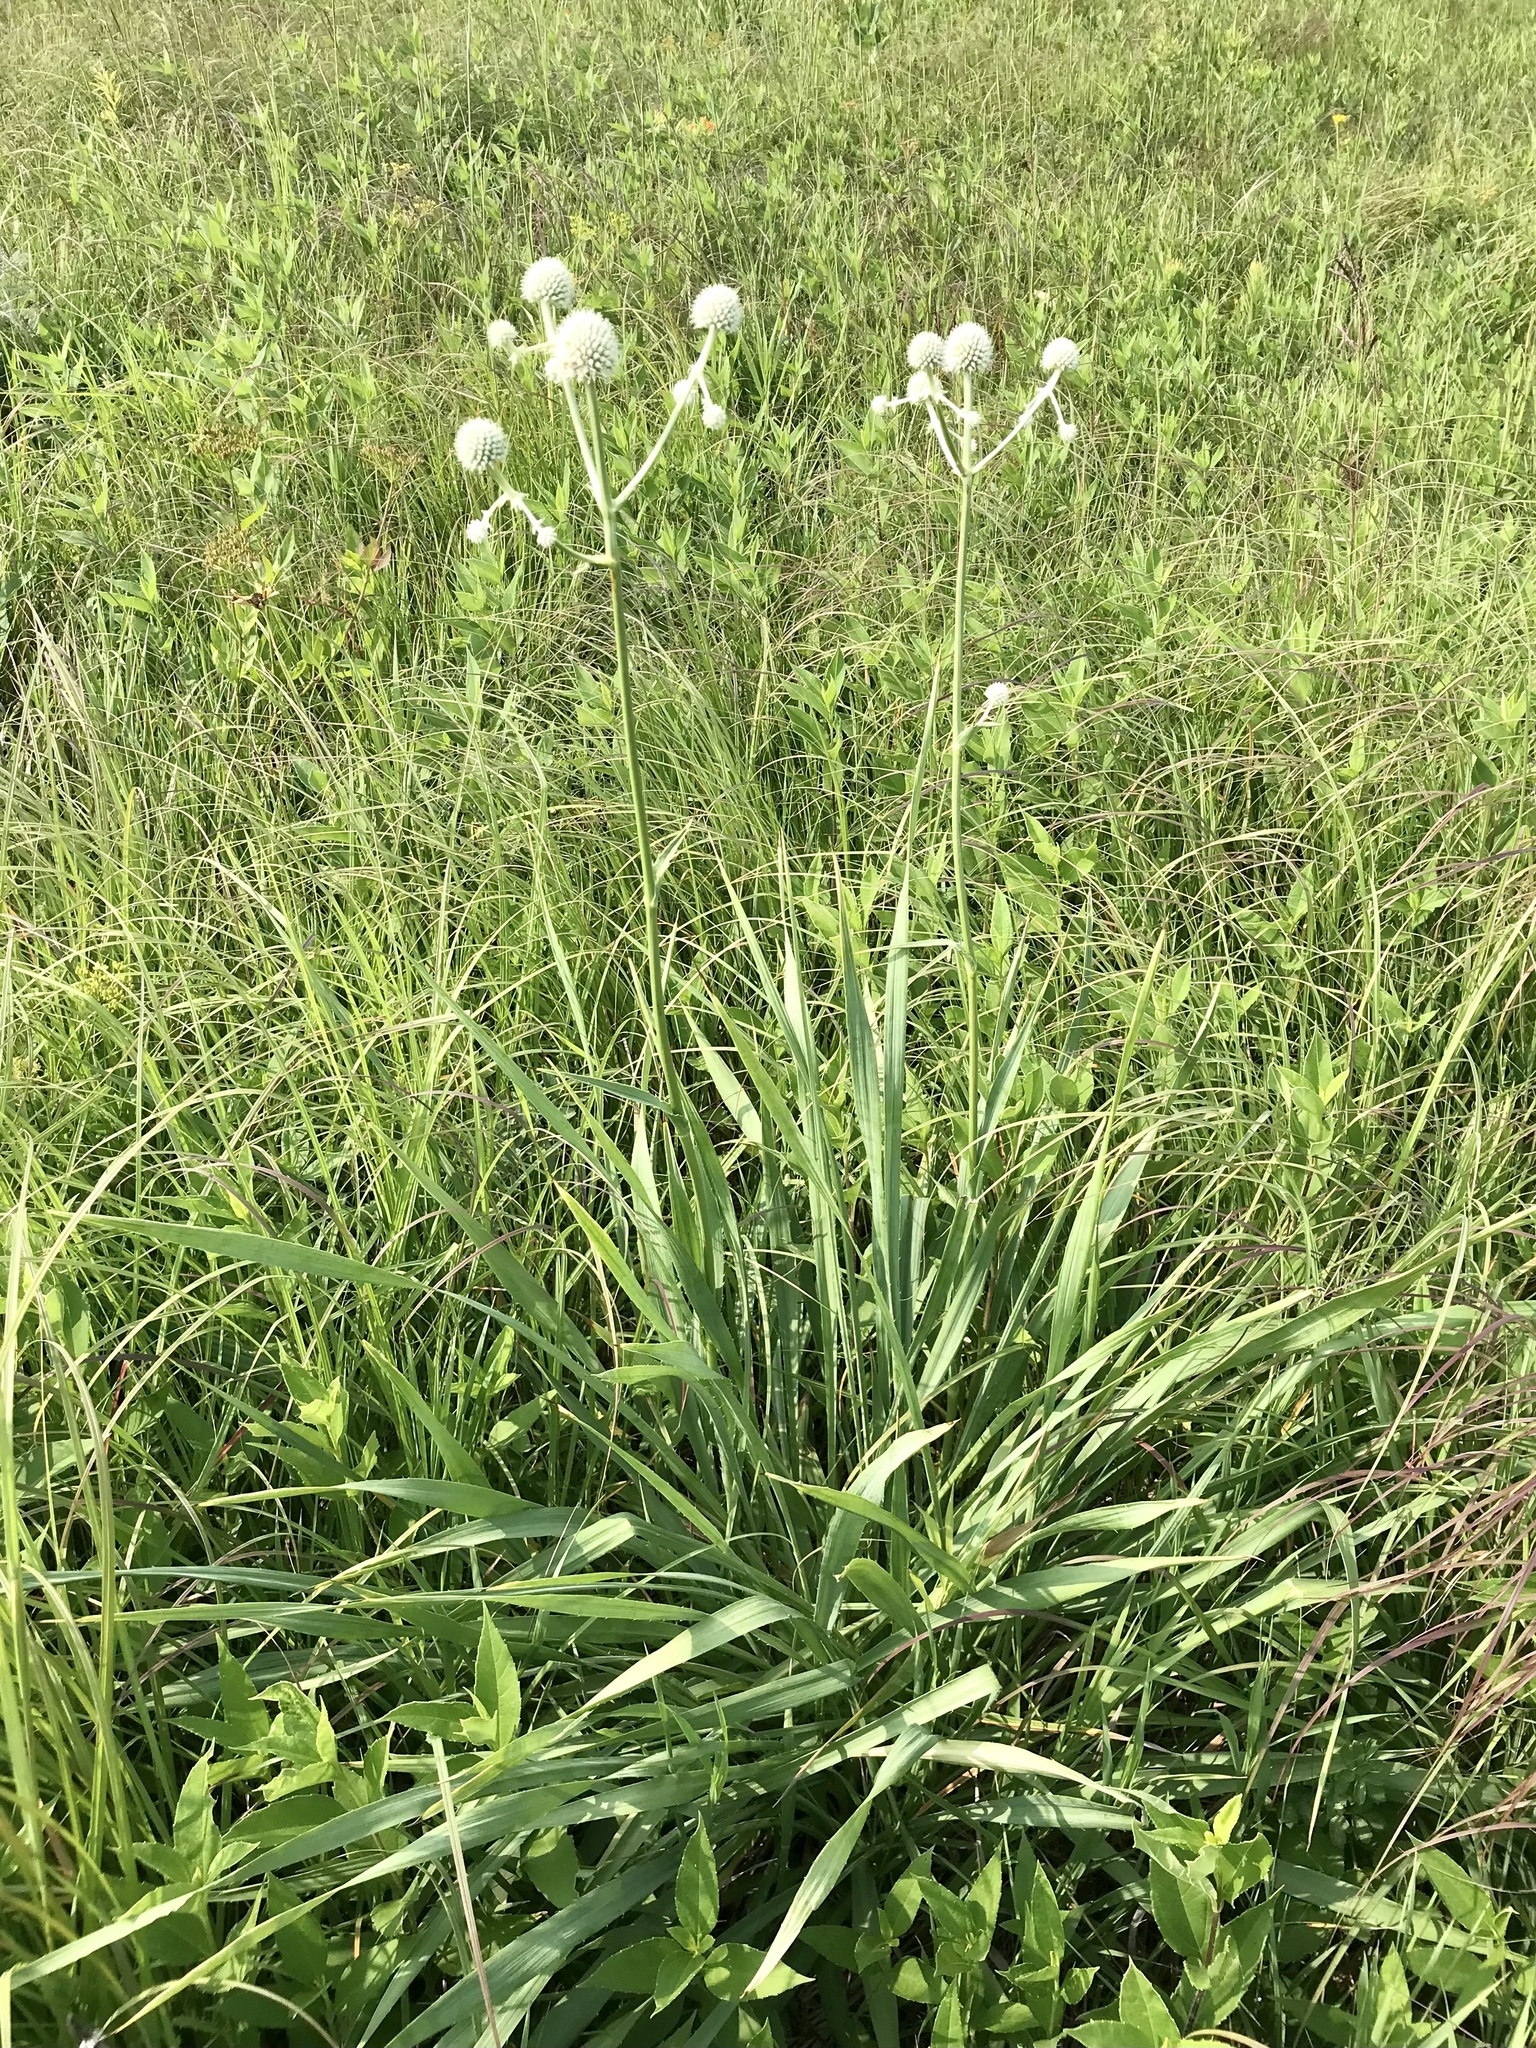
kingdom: Plantae
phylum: Tracheophyta
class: Magnoliopsida
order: Apiales
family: Apiaceae
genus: Eryngium
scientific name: Eryngium yuccifolium
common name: Button eryngo
